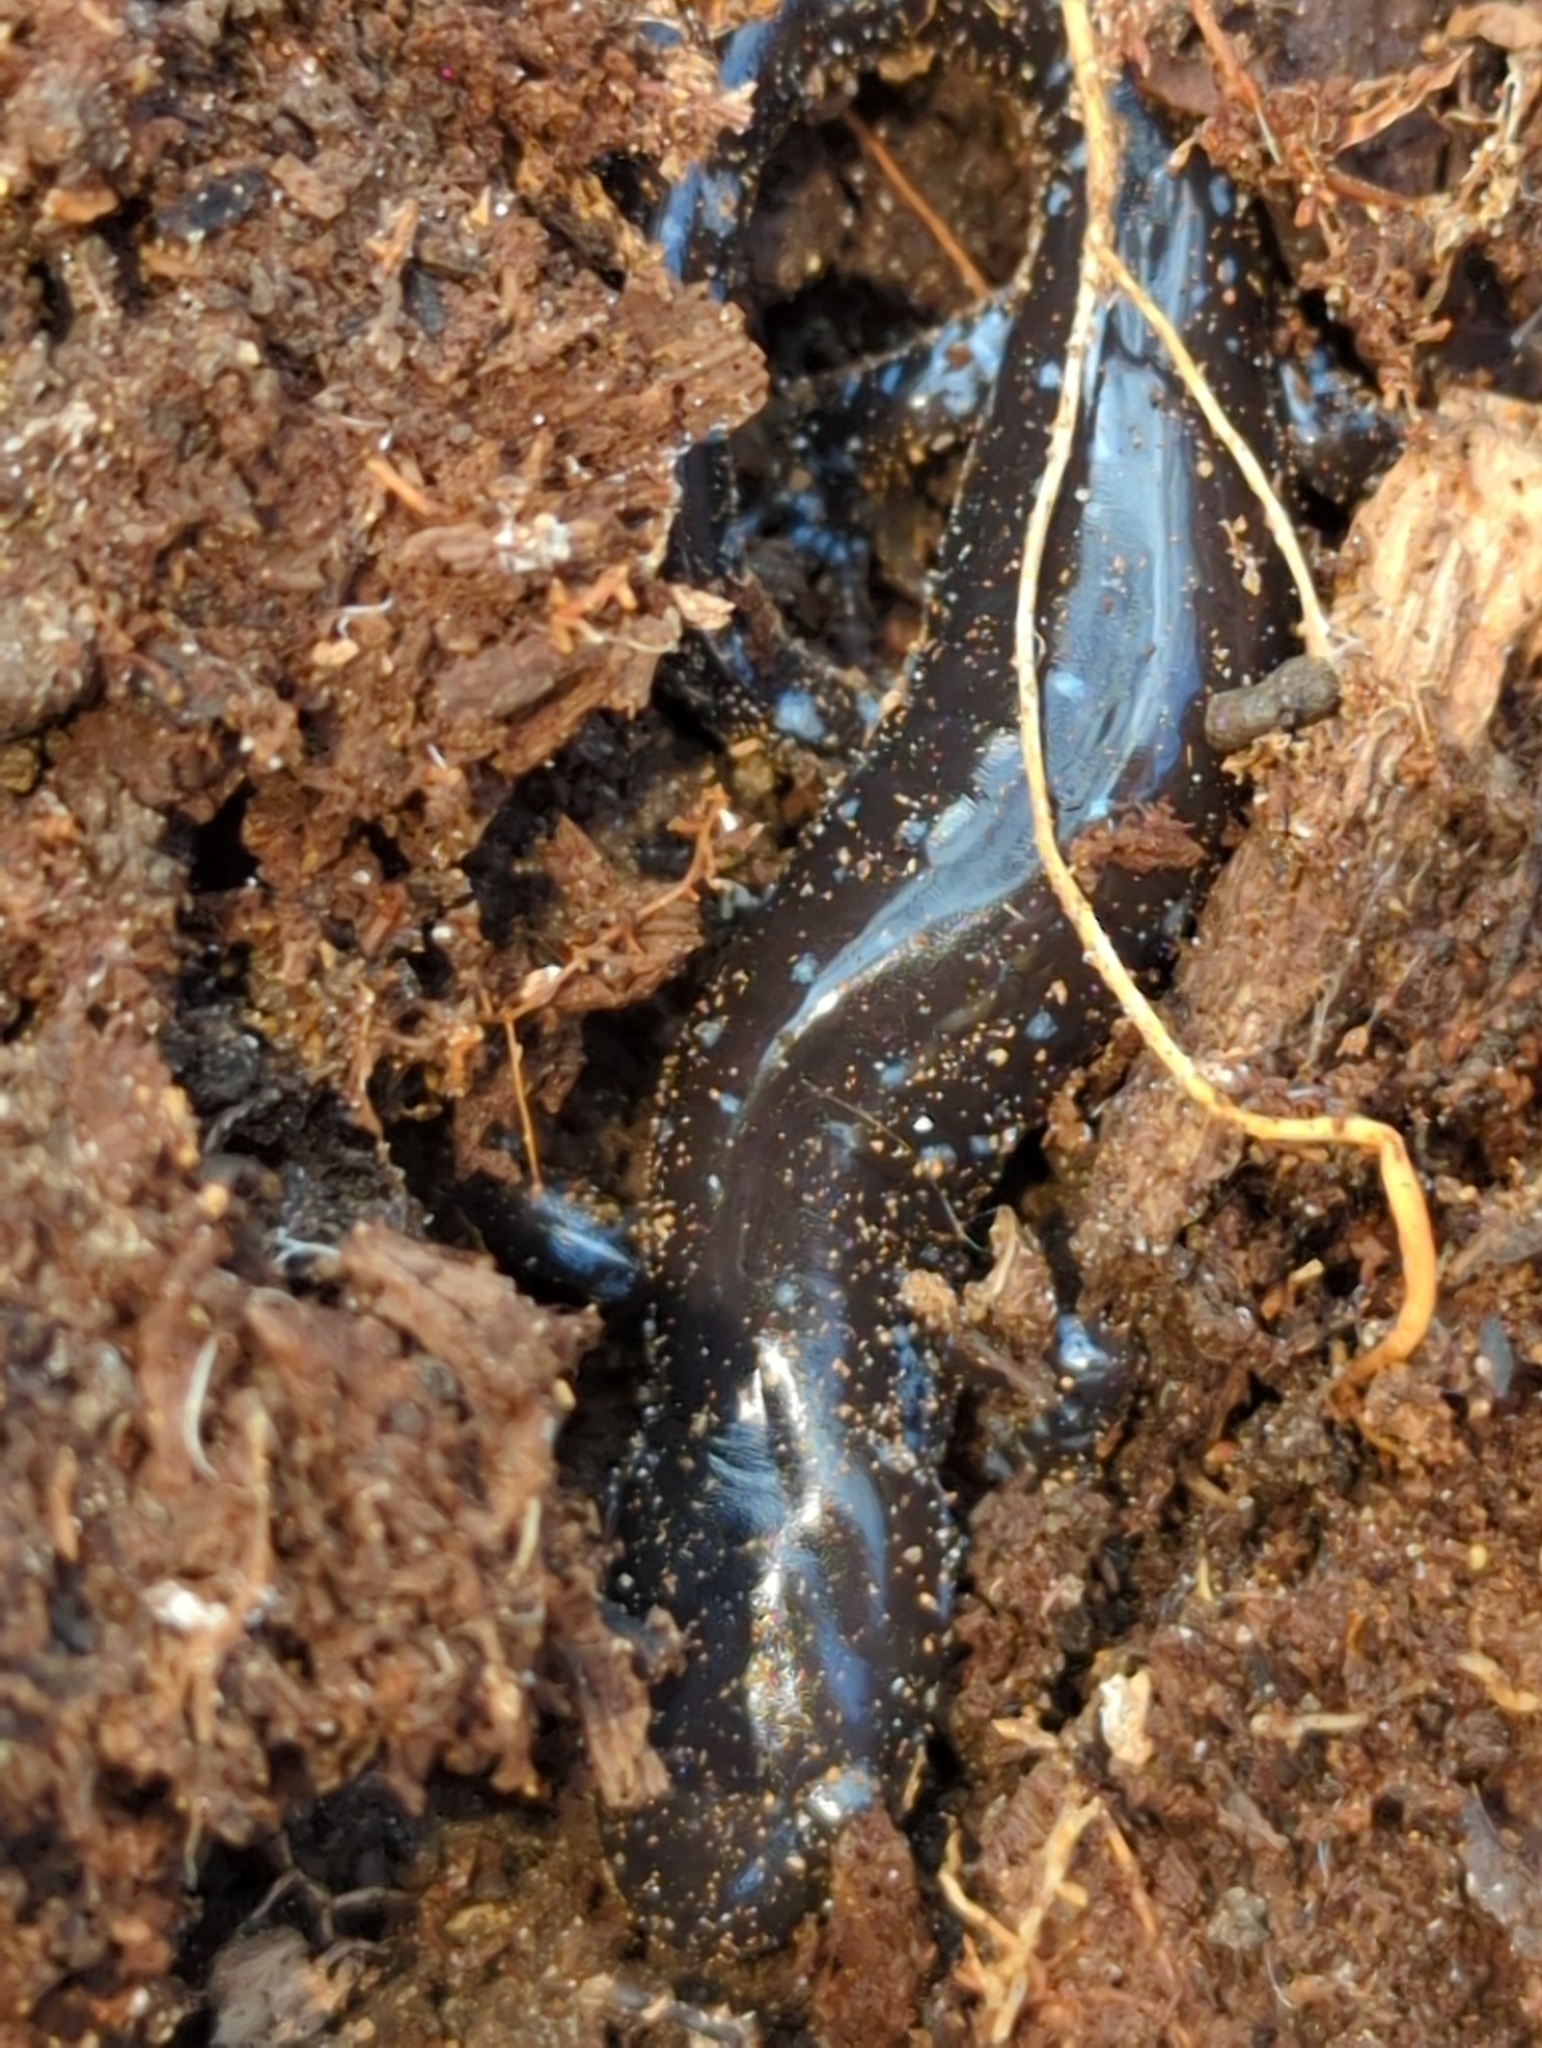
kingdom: Animalia
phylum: Chordata
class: Amphibia
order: Caudata
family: Ambystomatidae
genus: Ambystoma
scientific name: Ambystoma laterale
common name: Blue-spotted salamander
